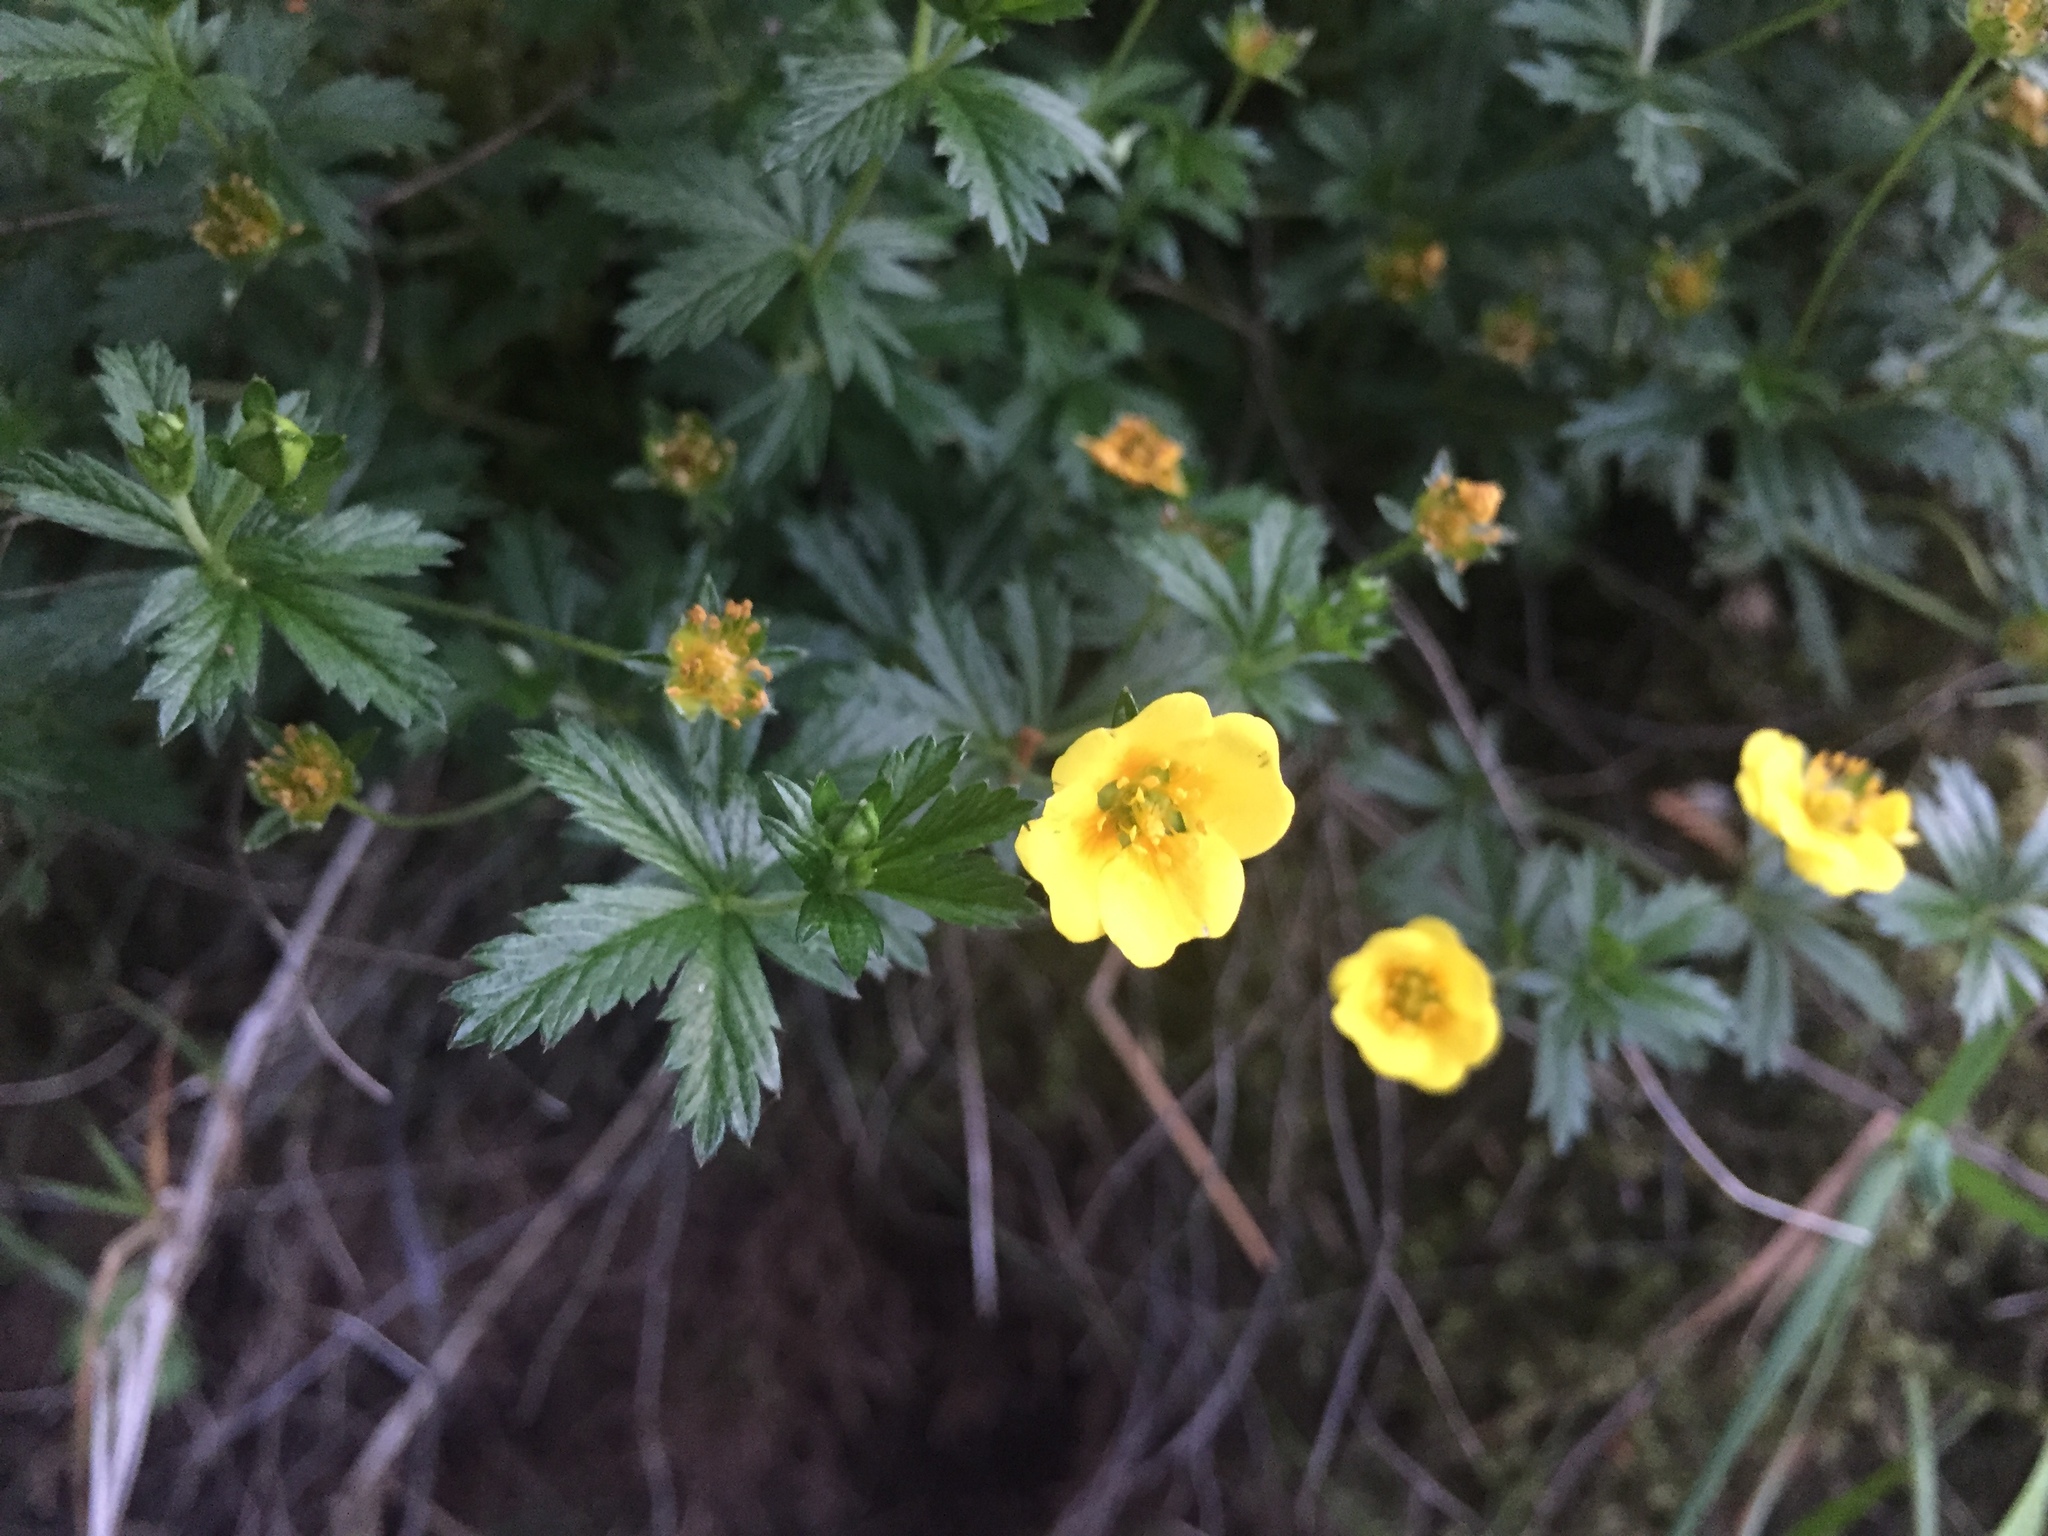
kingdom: Plantae
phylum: Tracheophyta
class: Magnoliopsida
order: Rosales
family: Rosaceae
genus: Potentilla
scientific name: Potentilla erecta
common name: Tormentil
